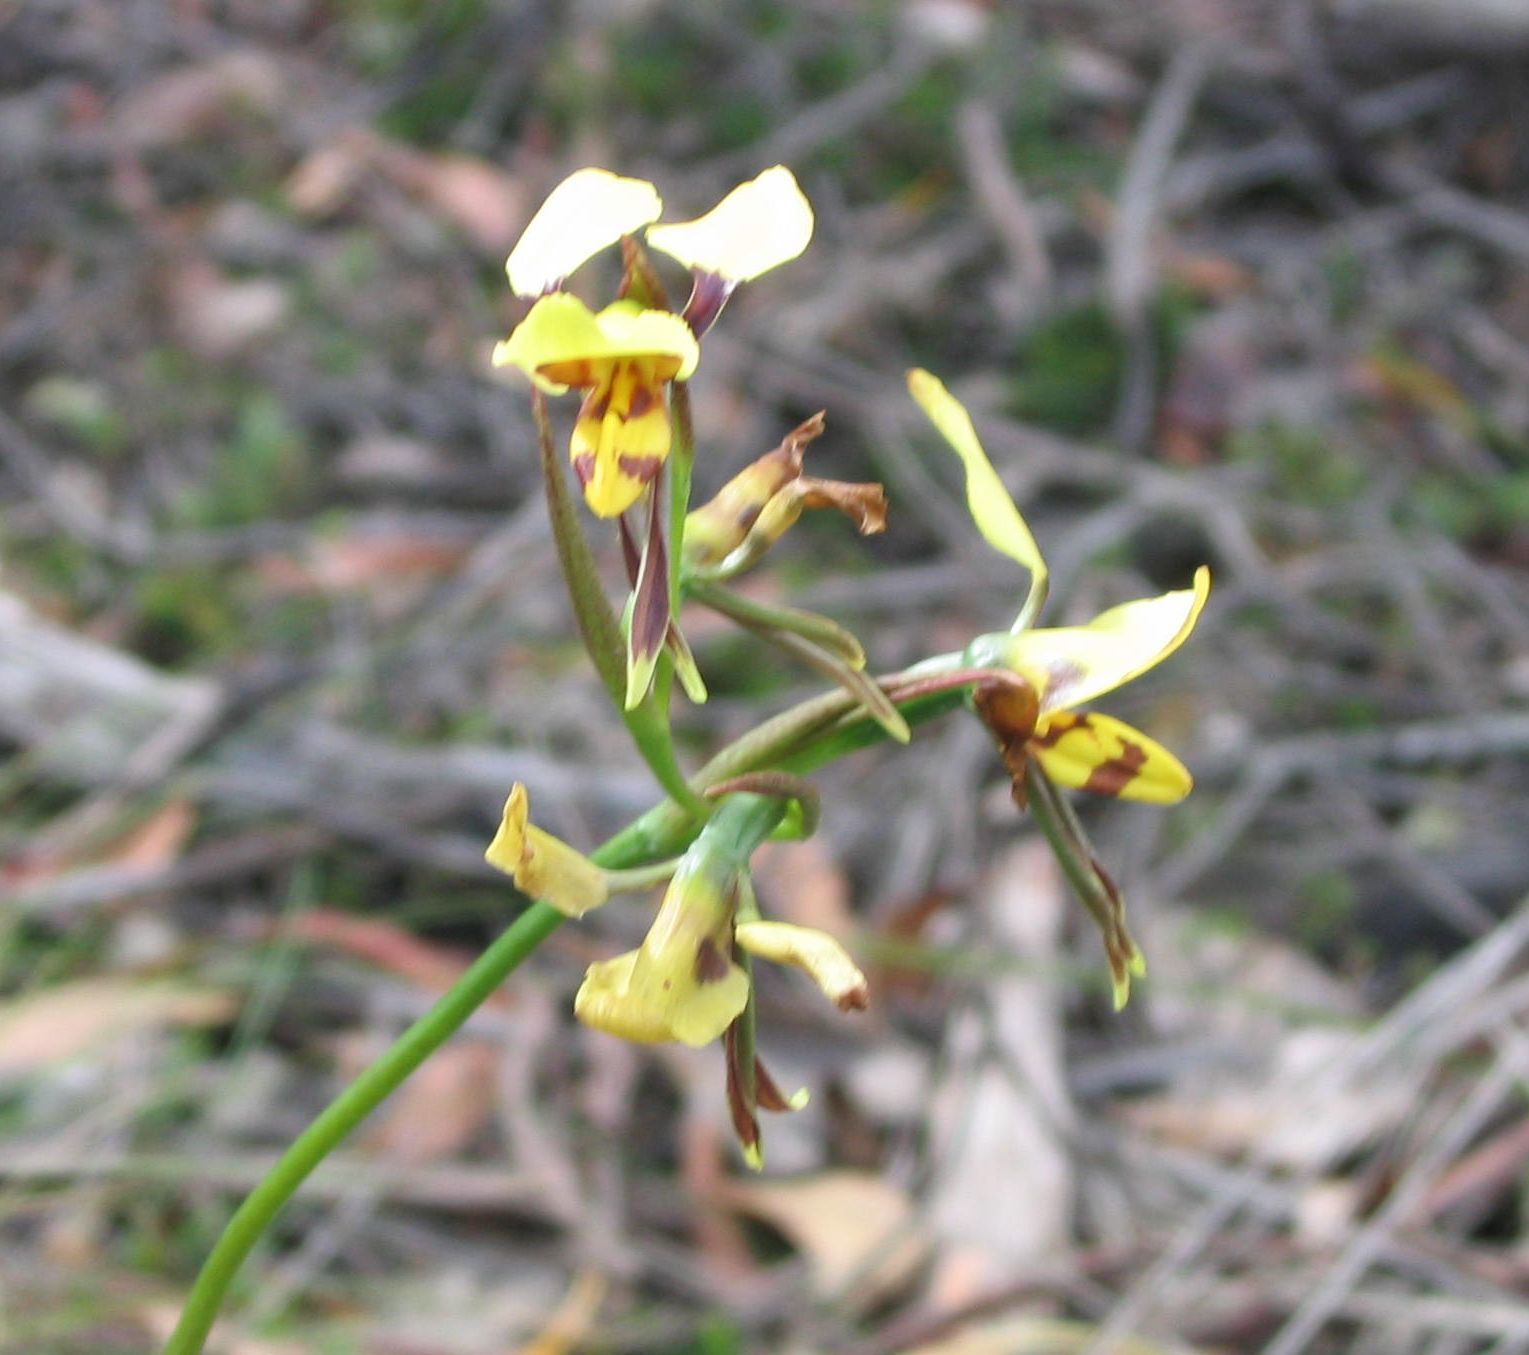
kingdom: Plantae
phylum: Tracheophyta
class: Liliopsida
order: Asparagales
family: Orchidaceae
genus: Diuris
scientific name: Diuris sulphurea
